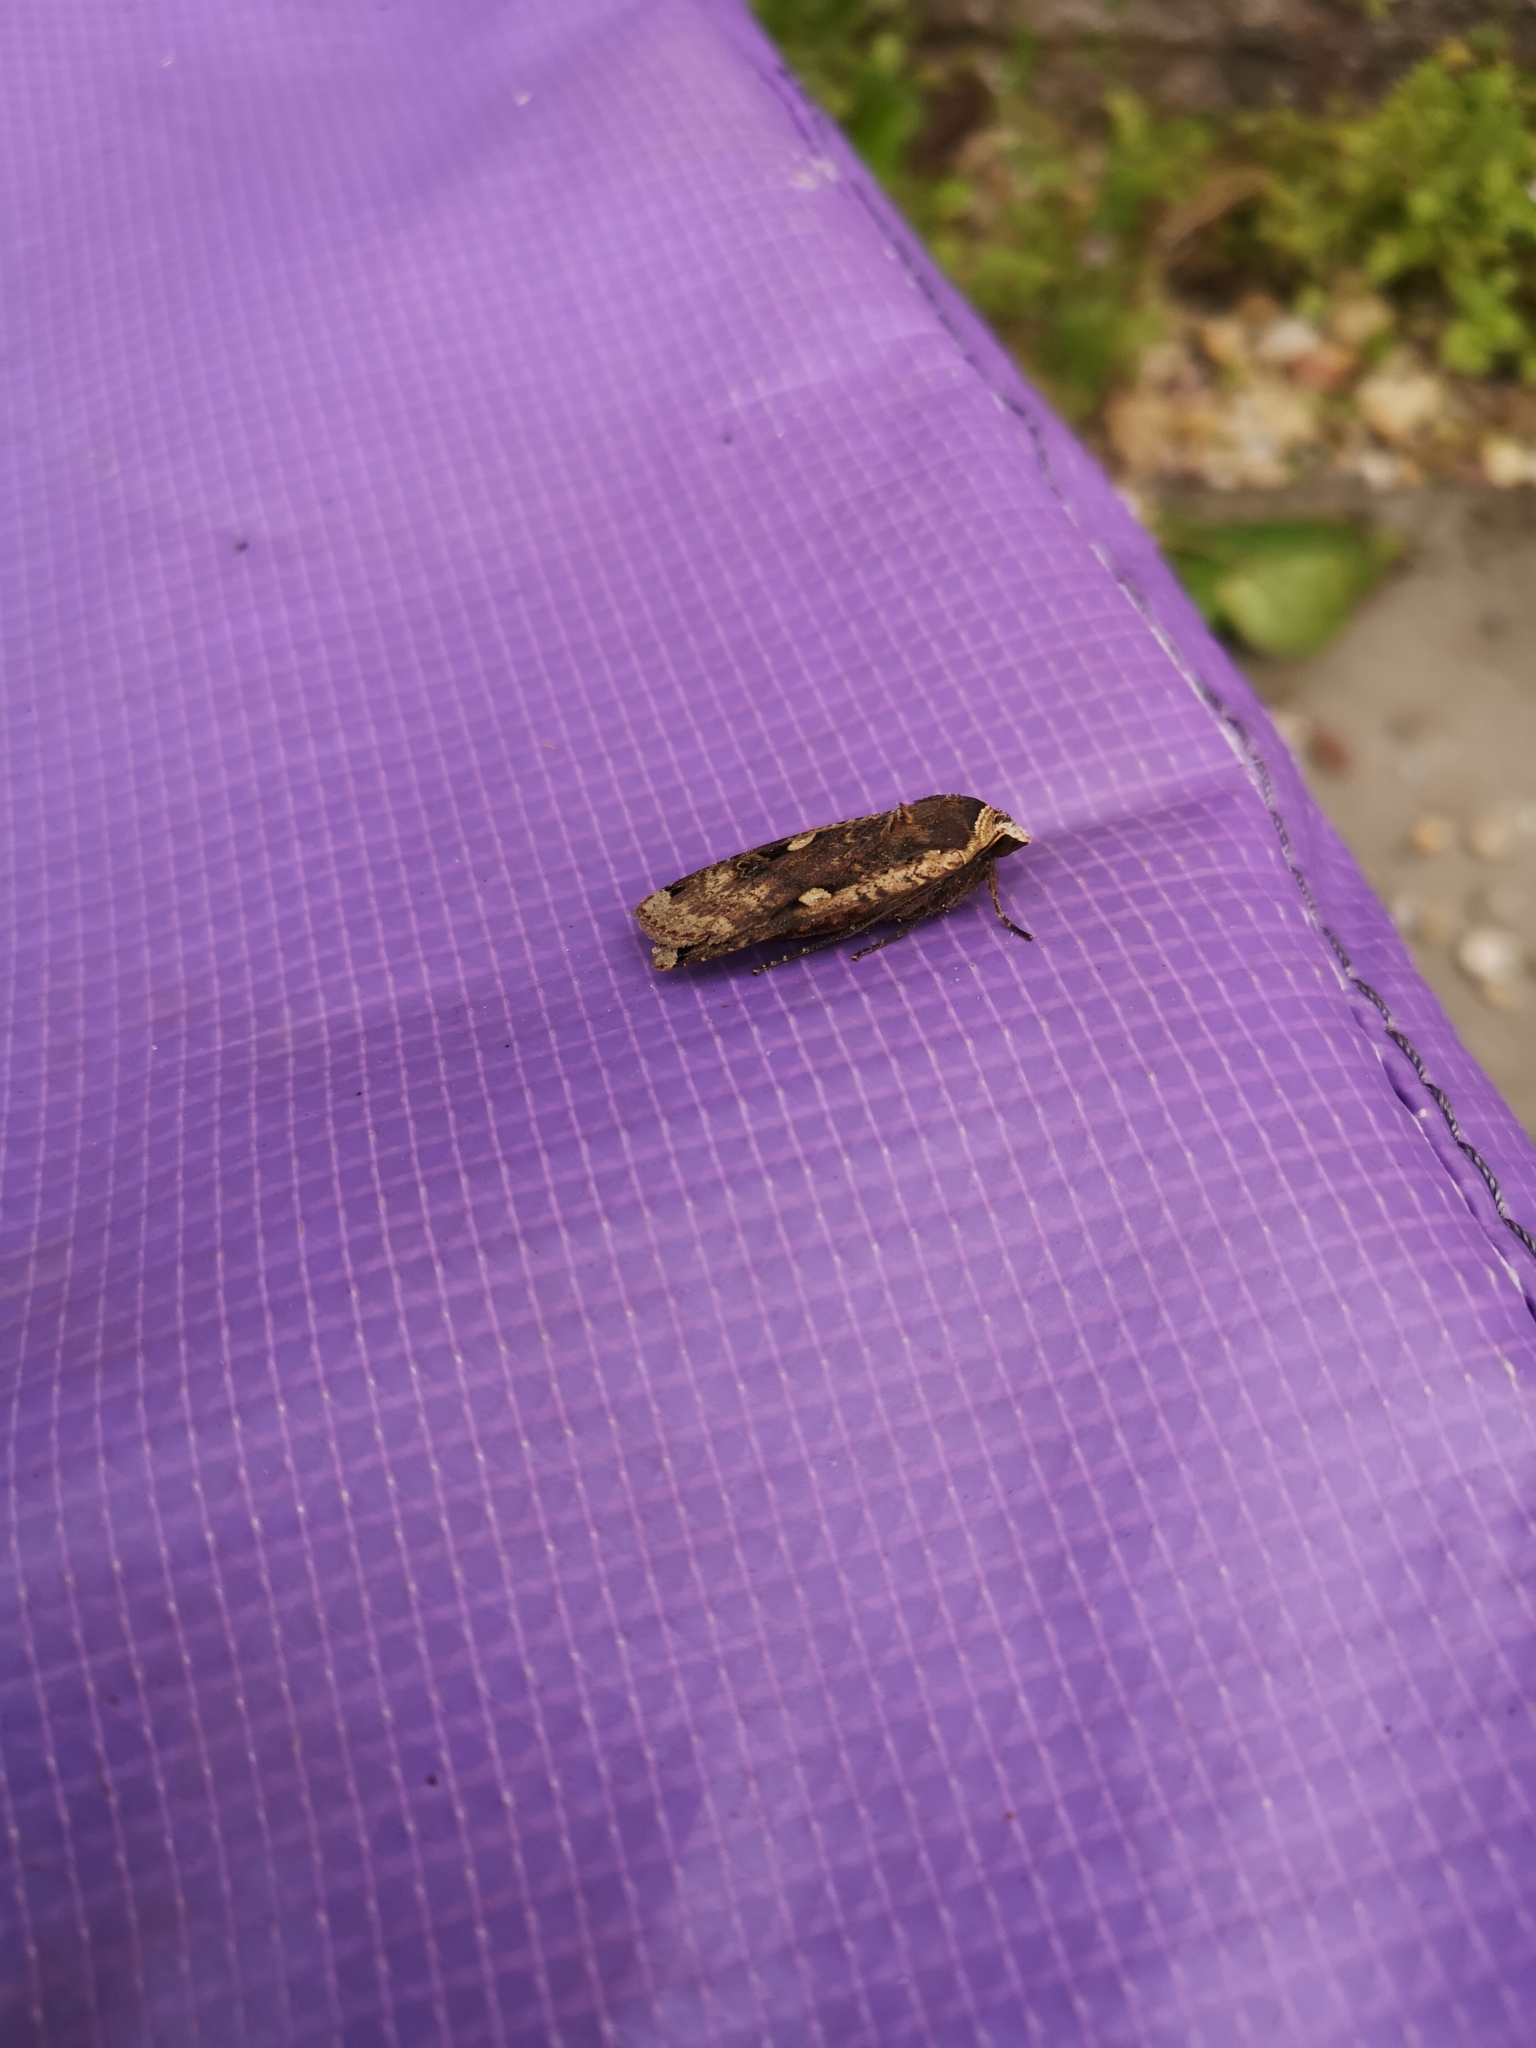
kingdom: Animalia
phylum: Arthropoda
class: Insecta
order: Lepidoptera
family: Noctuidae
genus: Noctua
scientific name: Noctua pronuba
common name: Large yellow underwing
